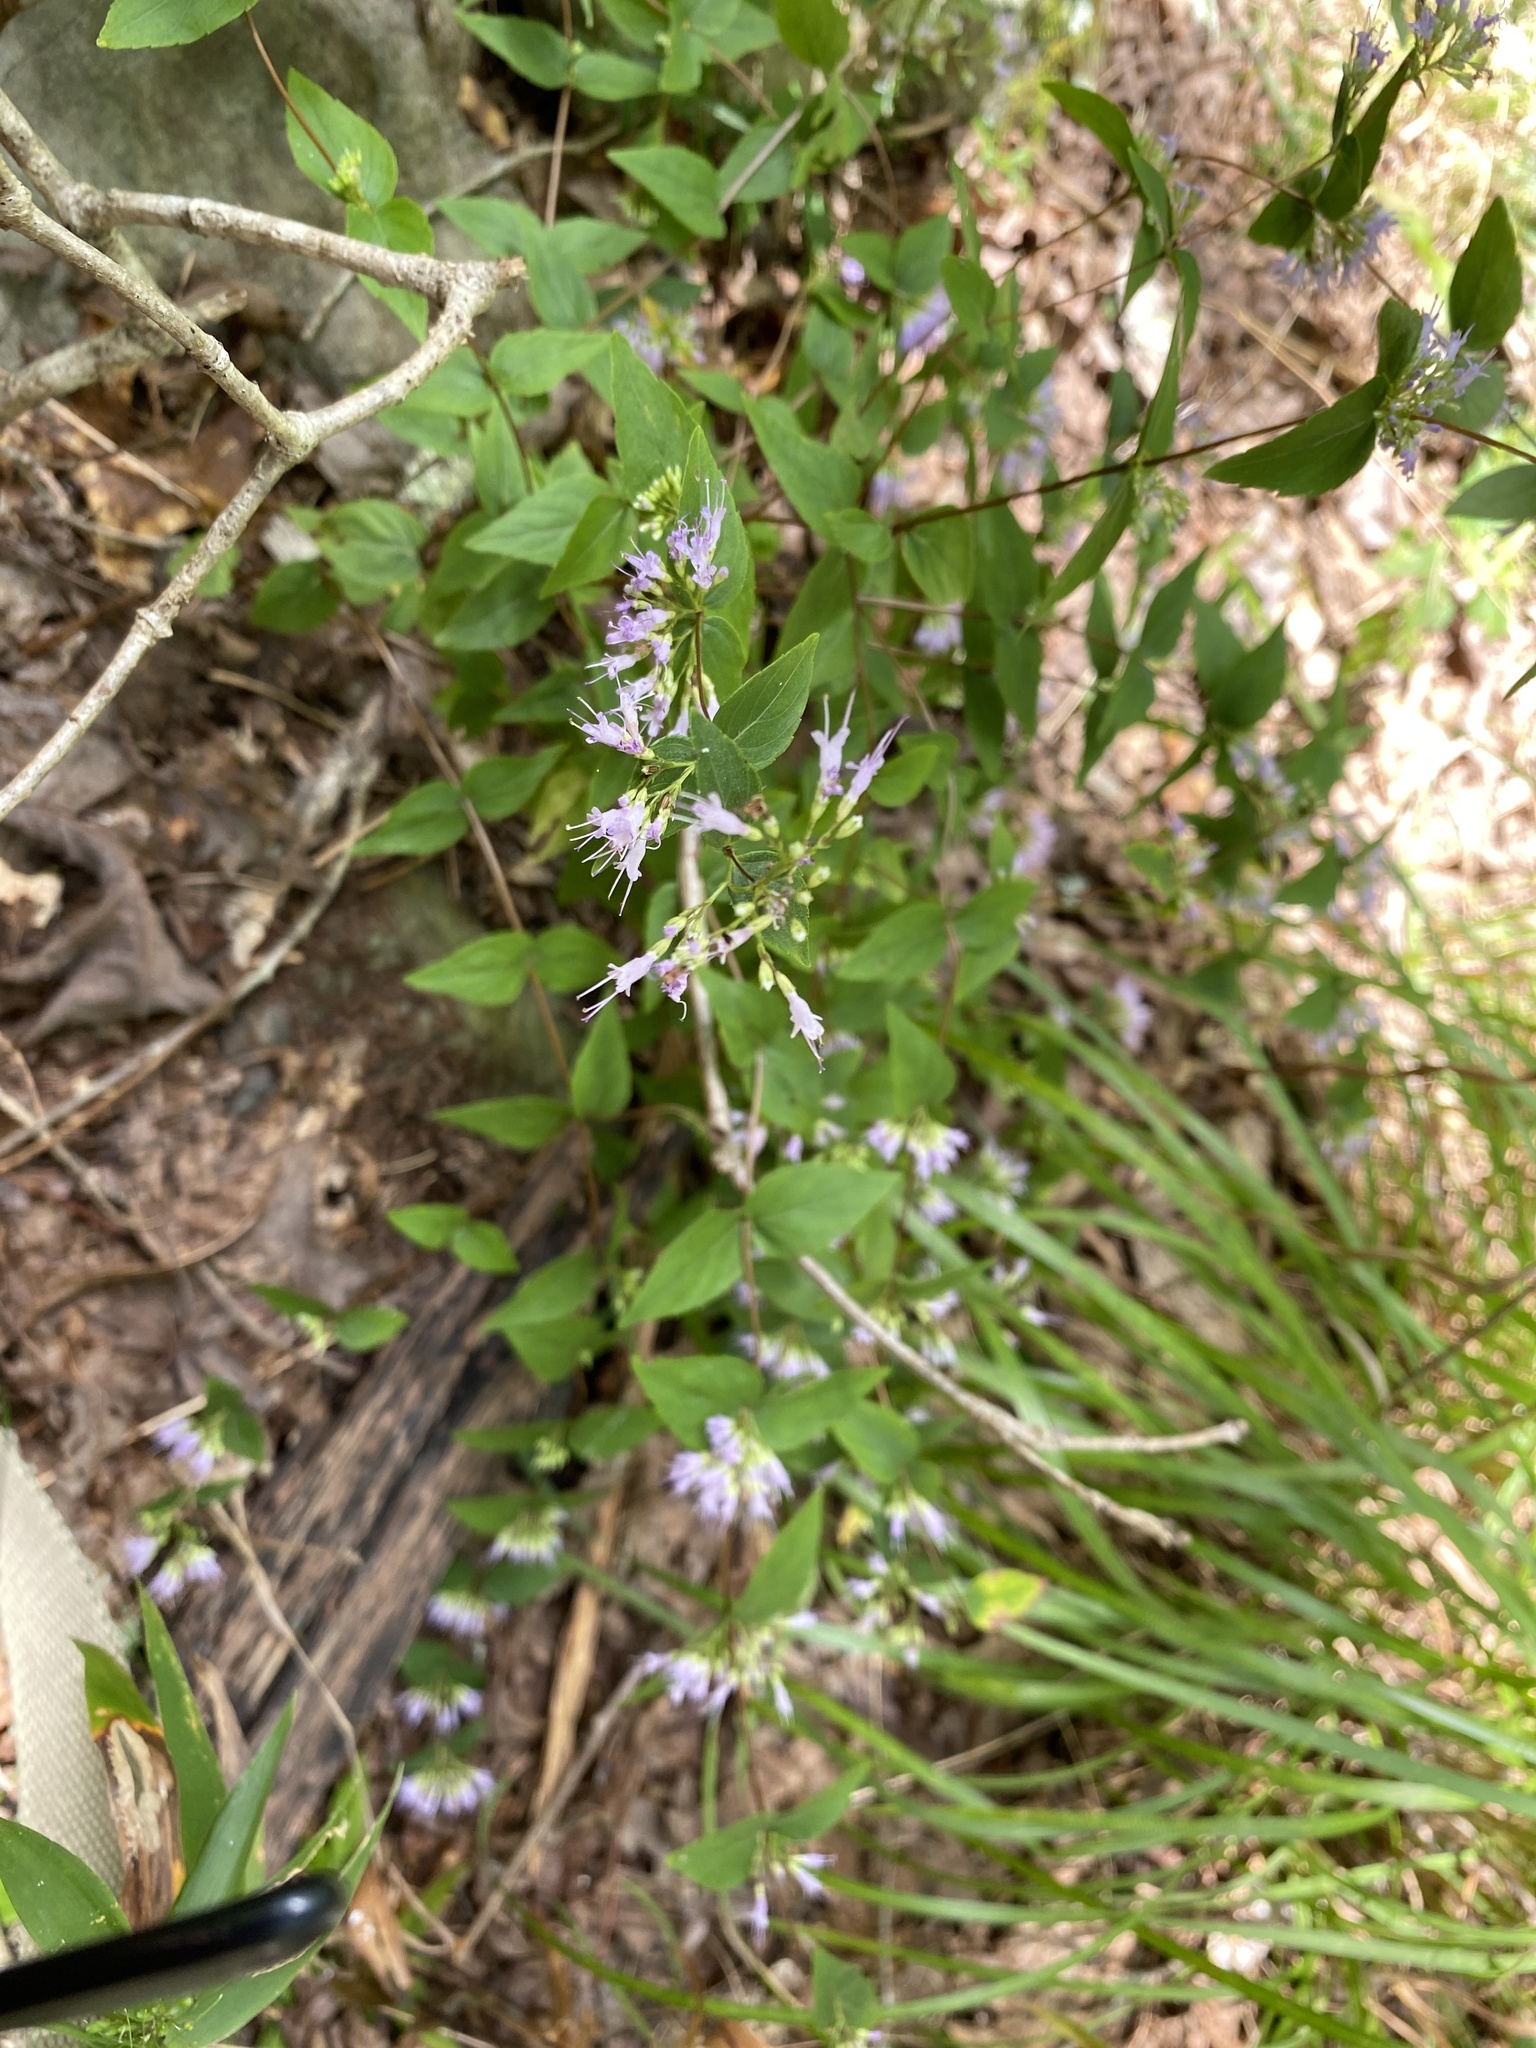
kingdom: Plantae
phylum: Tracheophyta
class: Magnoliopsida
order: Lamiales
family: Lamiaceae
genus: Cunila
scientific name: Cunila origanoides
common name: American dittany
